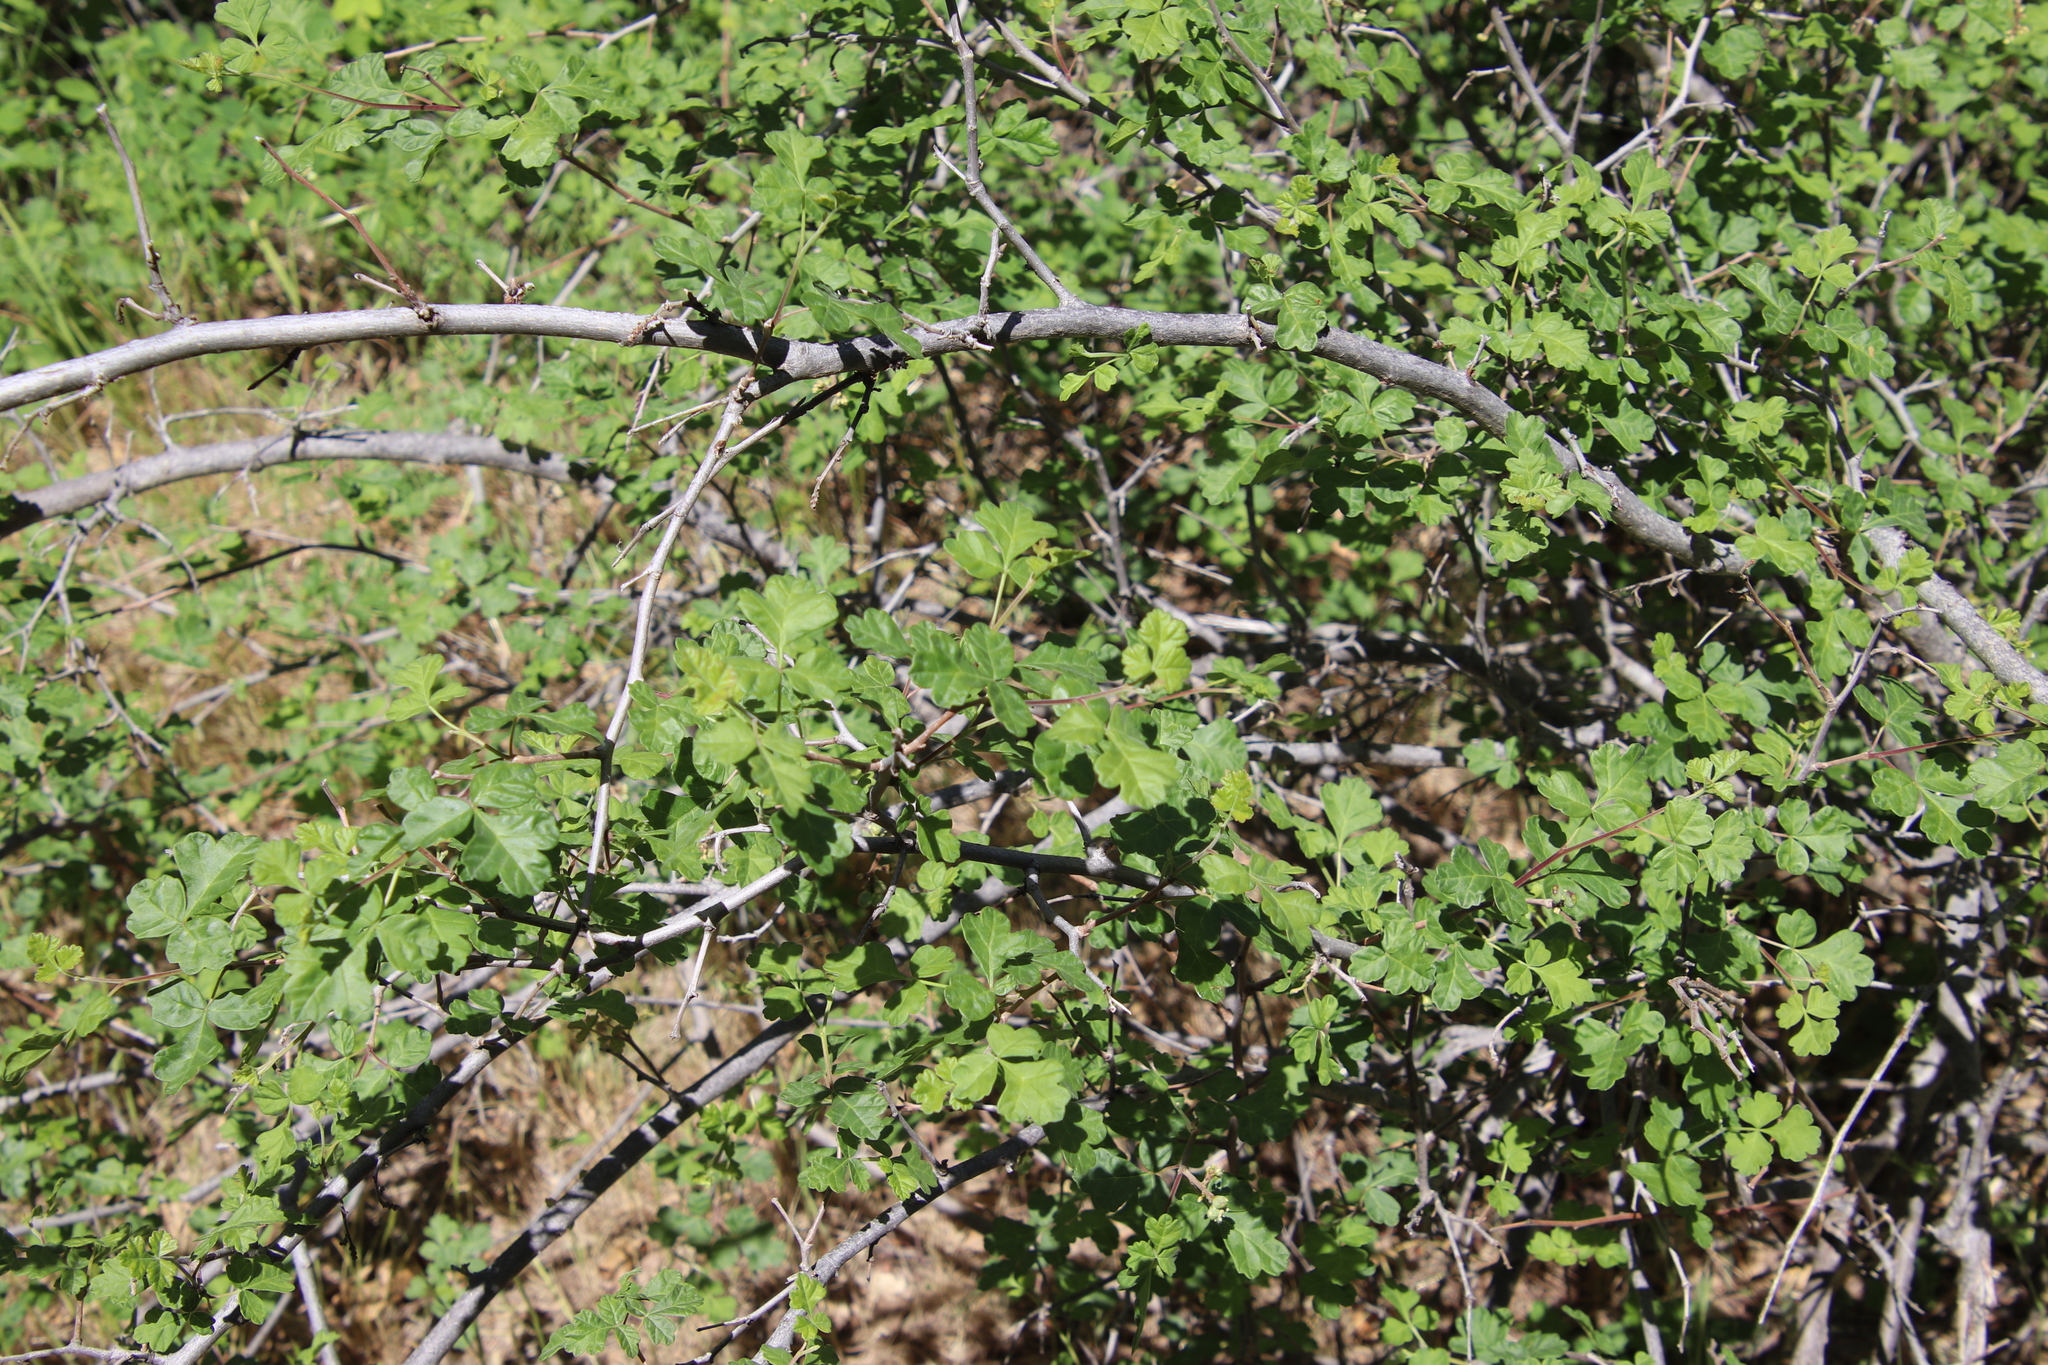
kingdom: Plantae
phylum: Tracheophyta
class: Magnoliopsida
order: Sapindales
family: Anacardiaceae
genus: Rhus
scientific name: Rhus aromatica
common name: Aromatic sumac
